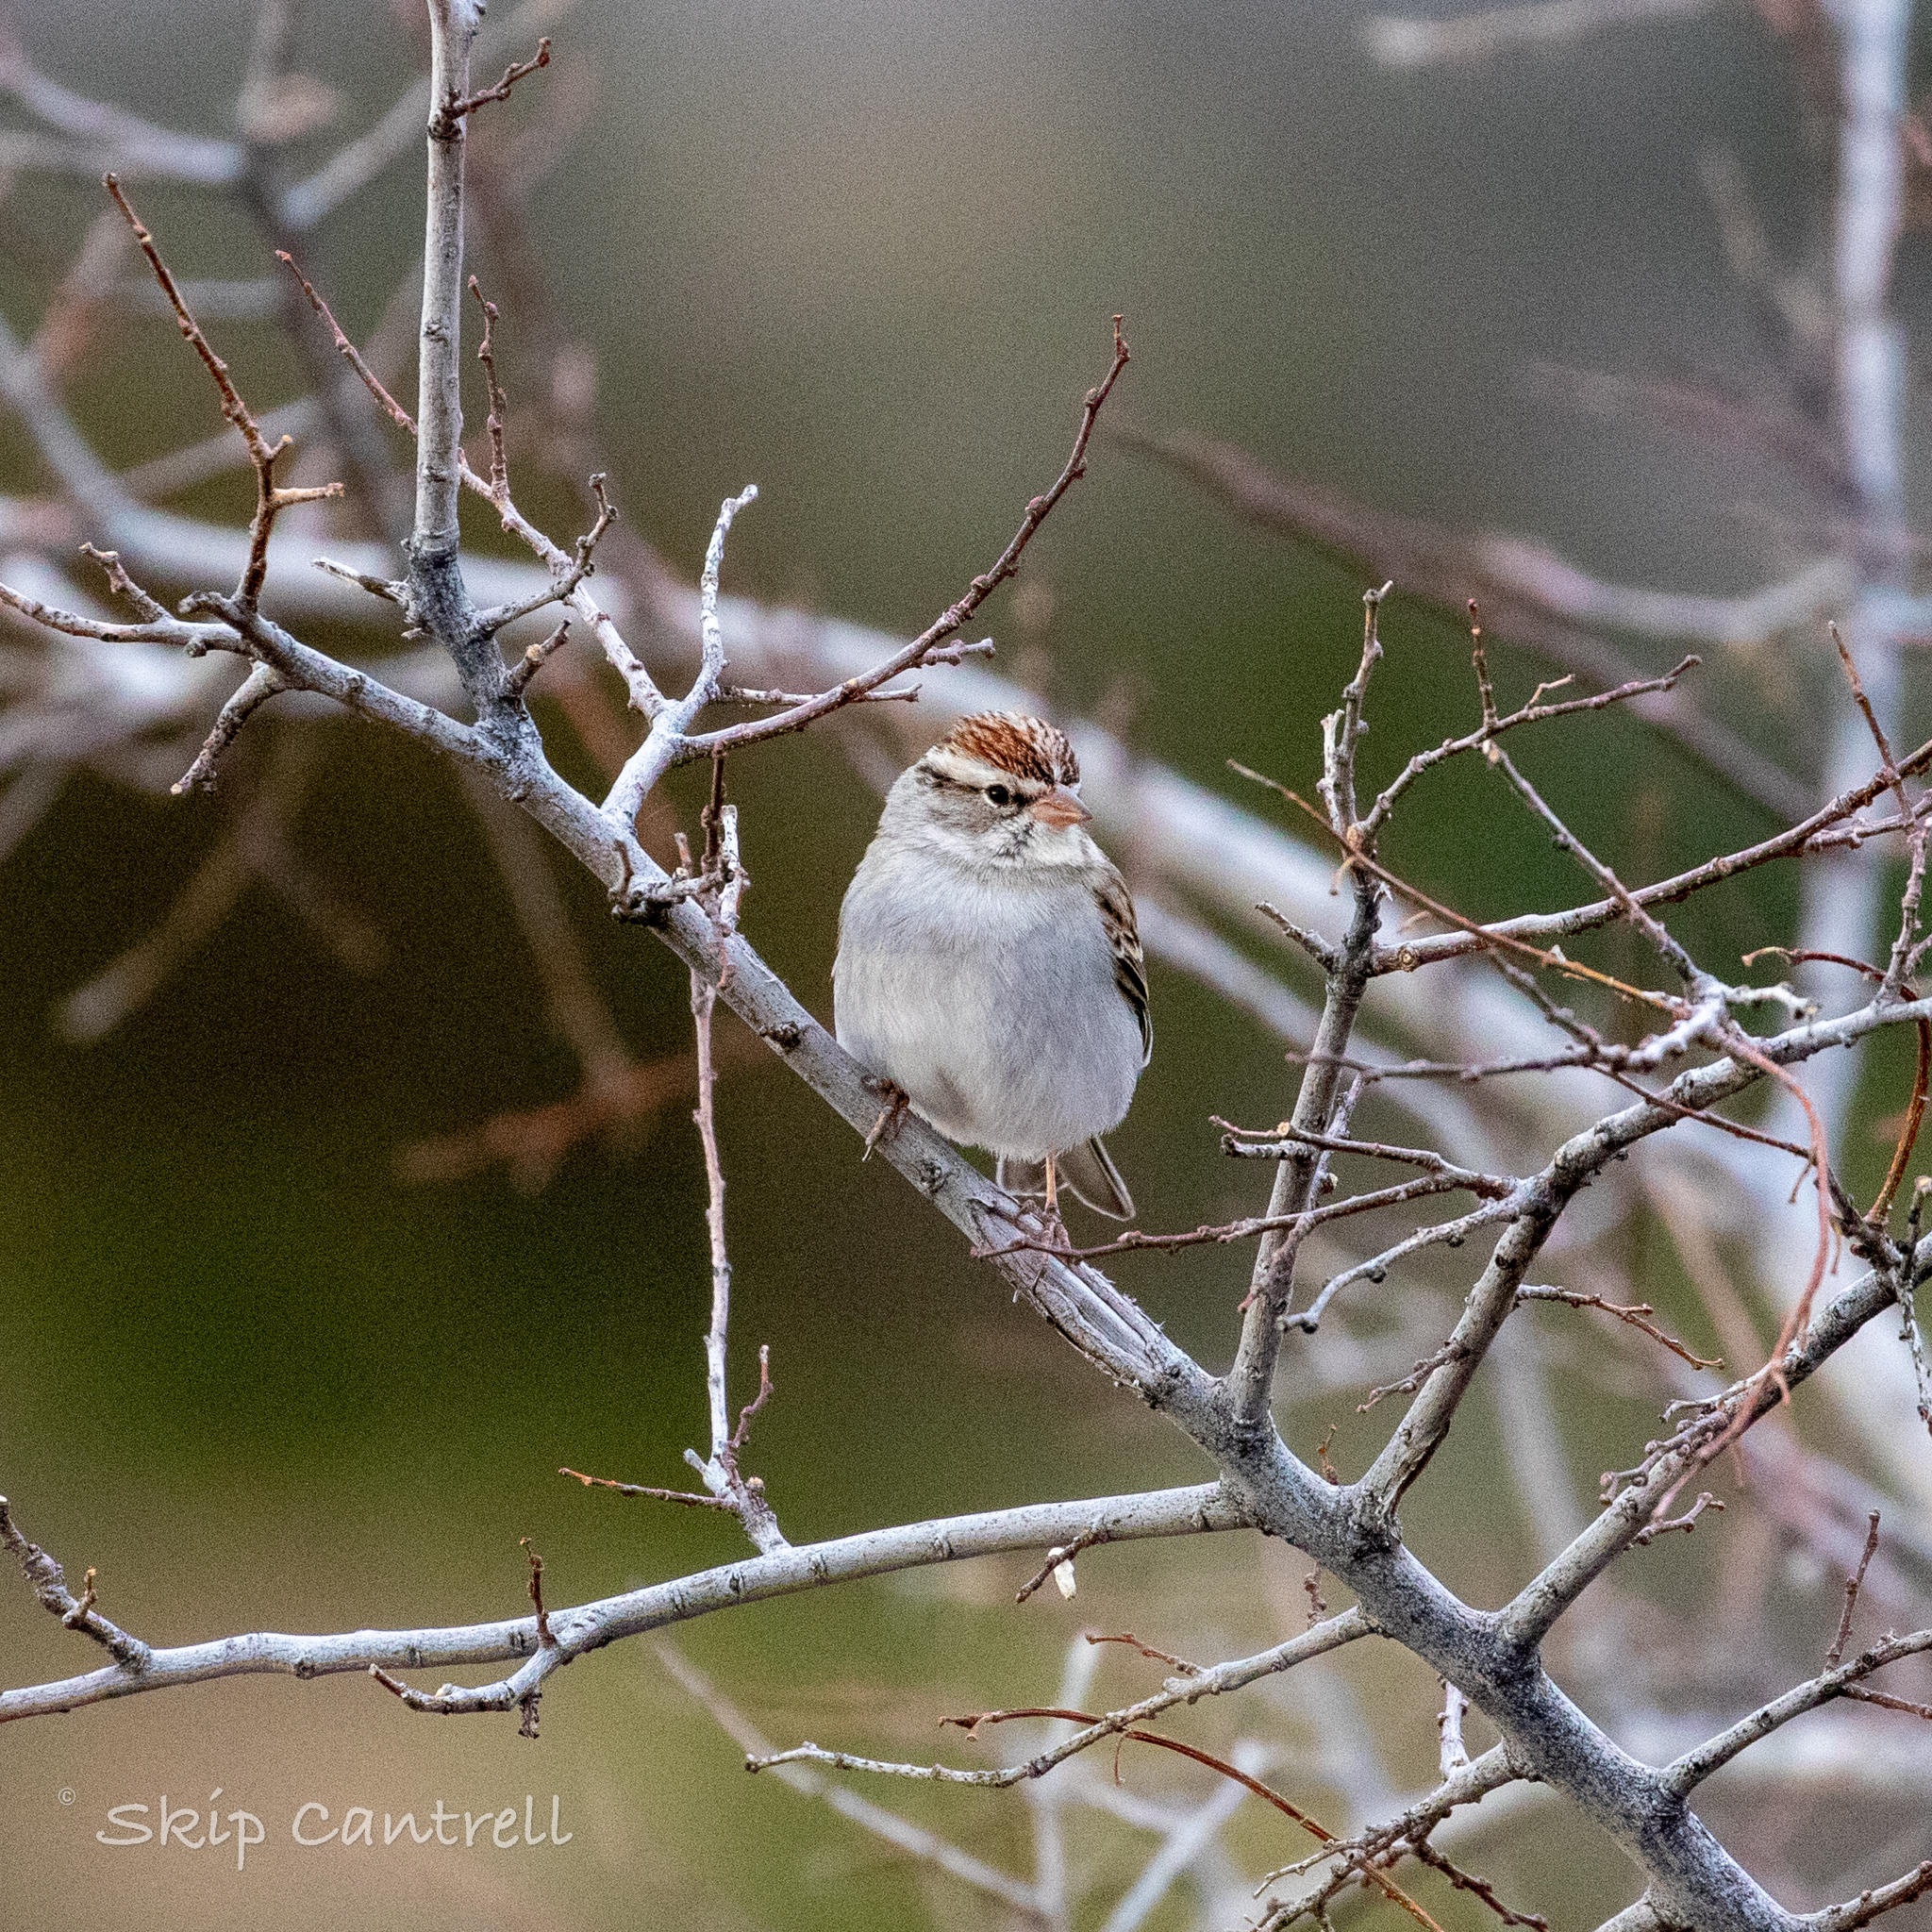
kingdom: Animalia
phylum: Chordata
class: Aves
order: Passeriformes
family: Passerellidae
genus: Spizella
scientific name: Spizella passerina
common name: Chipping sparrow
